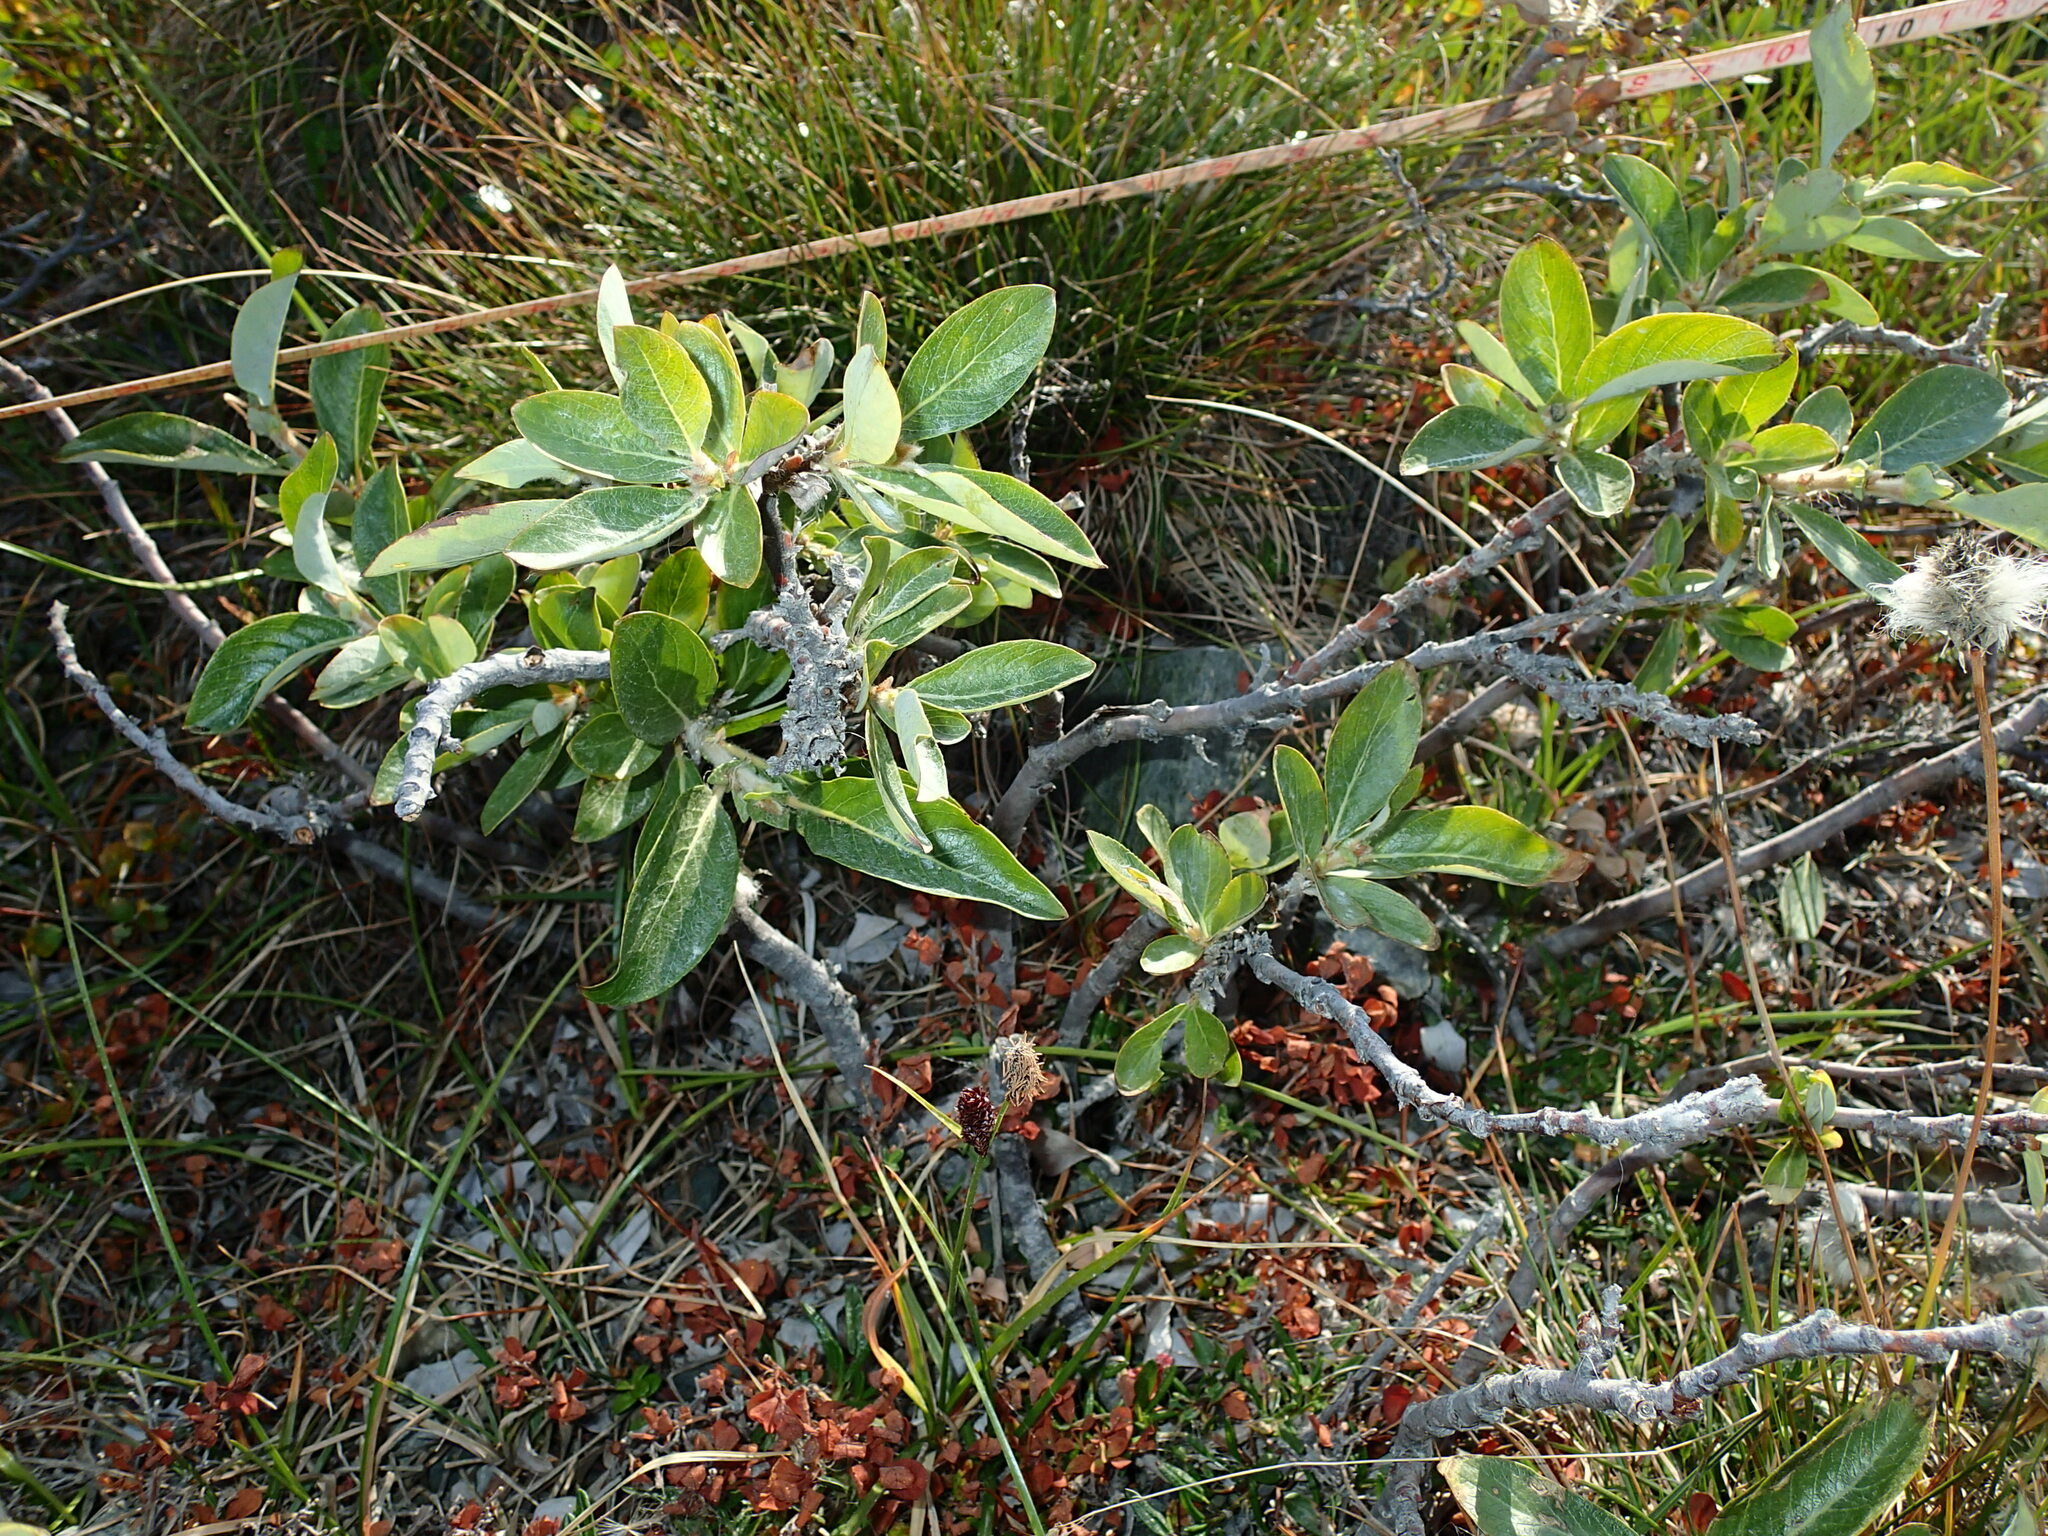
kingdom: Plantae
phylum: Tracheophyta
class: Magnoliopsida
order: Malpighiales
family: Salicaceae
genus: Salix
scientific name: Salix richardsonii
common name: Richardson’s willow
